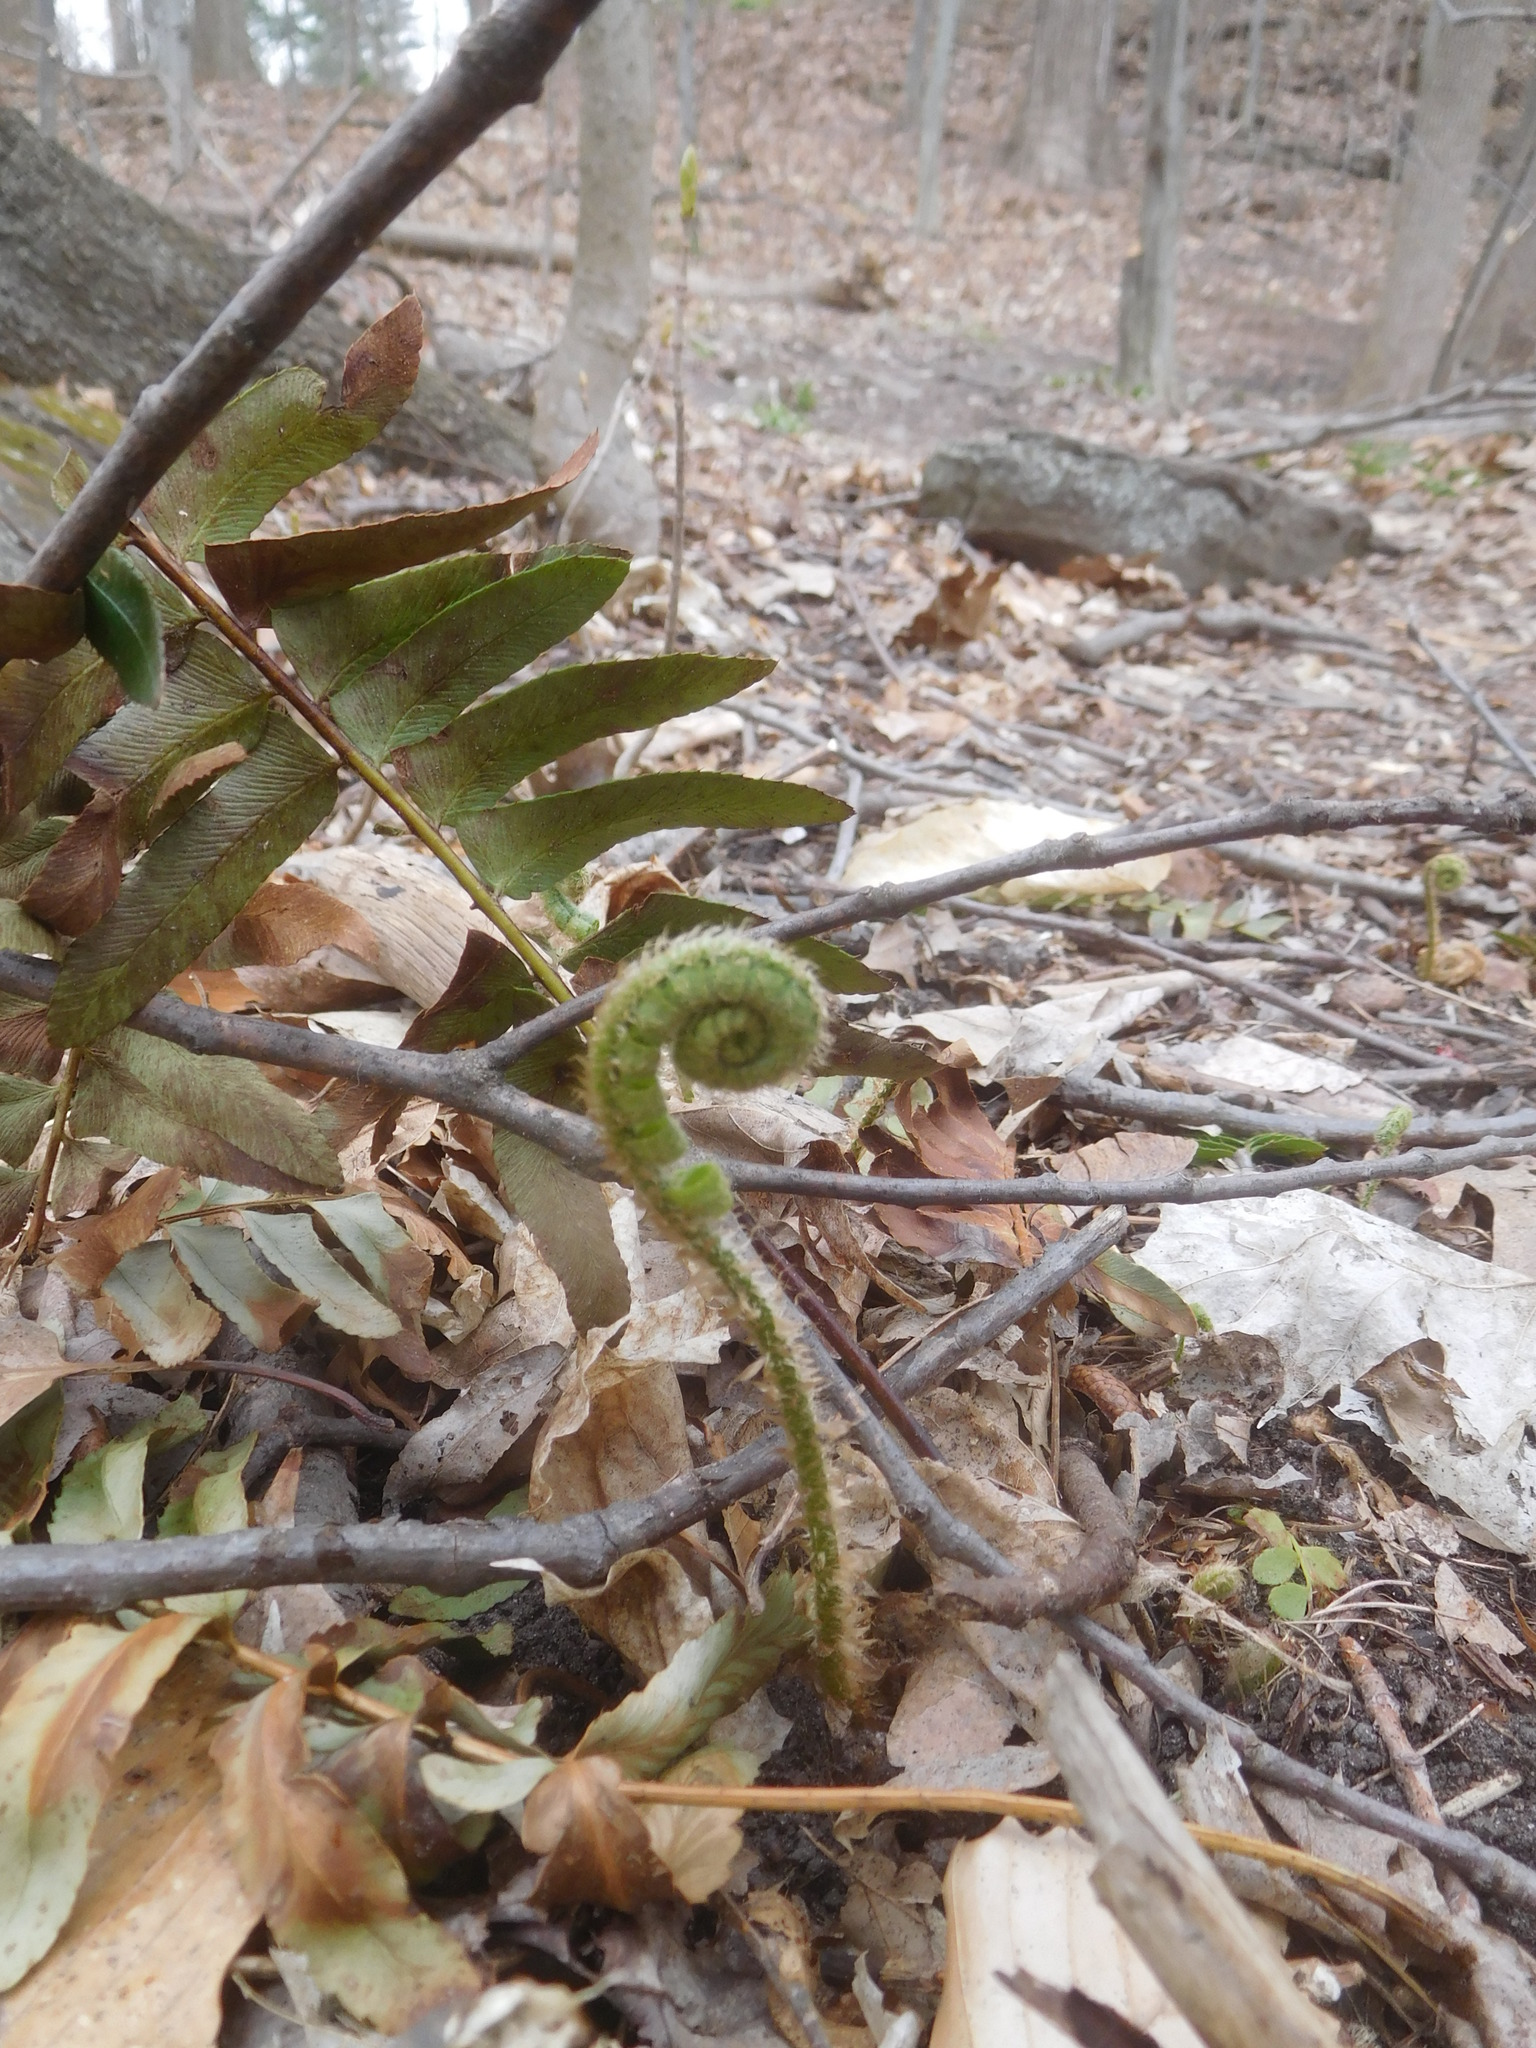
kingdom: Plantae
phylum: Tracheophyta
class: Polypodiopsida
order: Polypodiales
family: Dryopteridaceae
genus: Polystichum
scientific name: Polystichum acrostichoides
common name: Christmas fern
